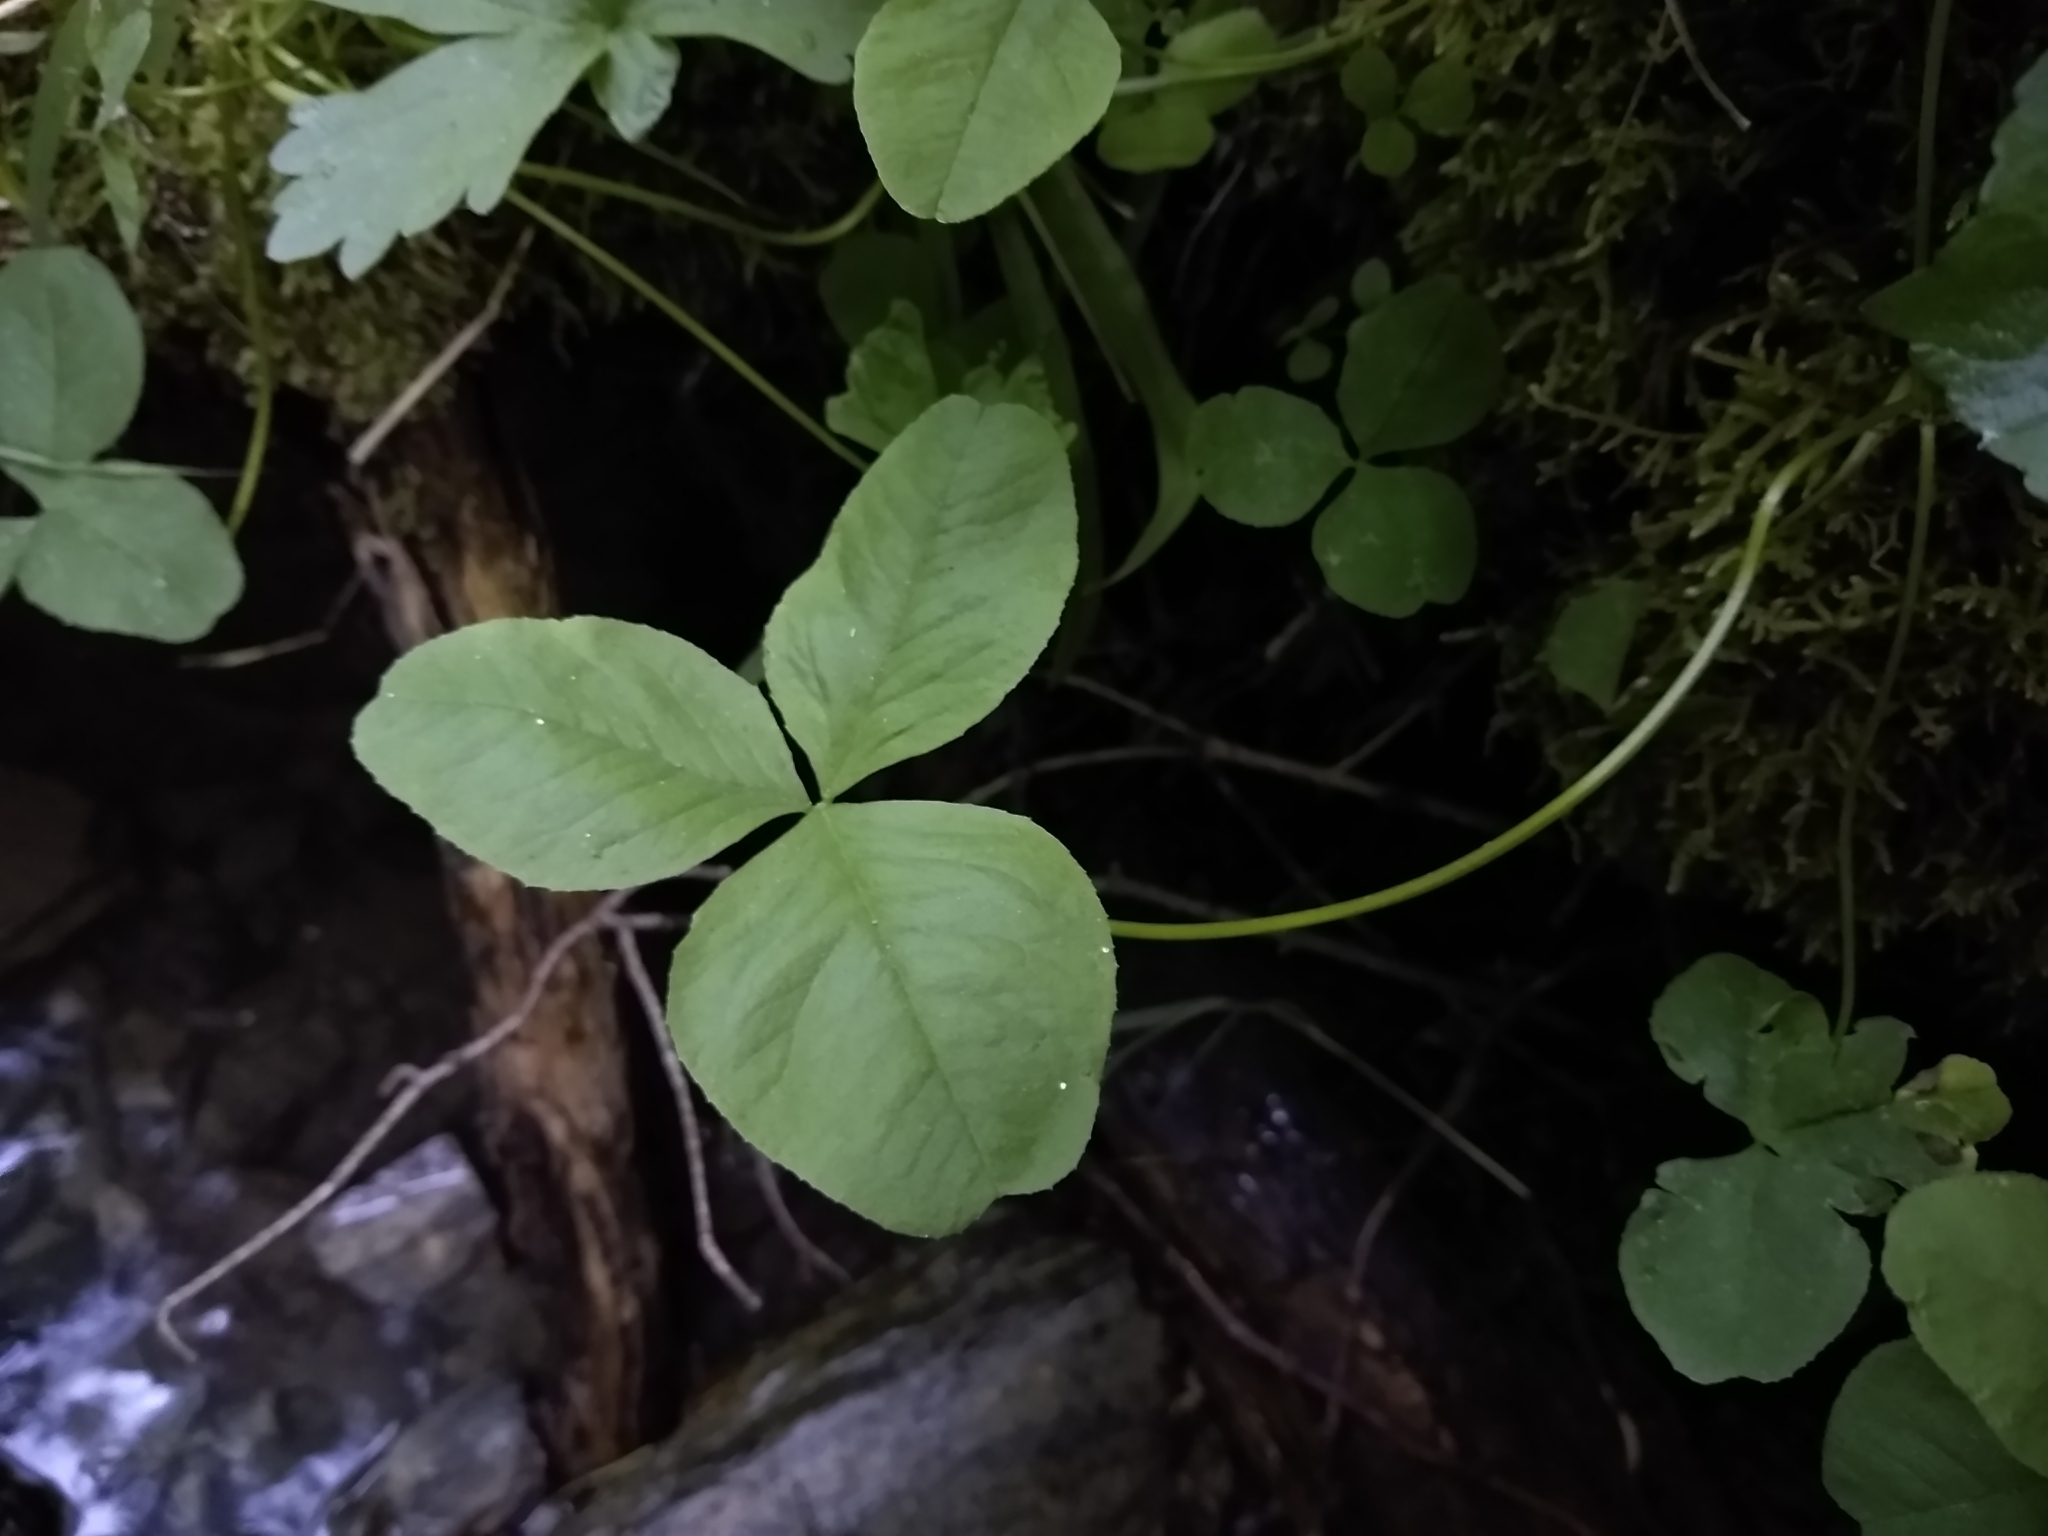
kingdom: Plantae
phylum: Tracheophyta
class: Magnoliopsida
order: Fabales
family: Fabaceae
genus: Trifolium
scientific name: Trifolium howellii
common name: Howell's clover
